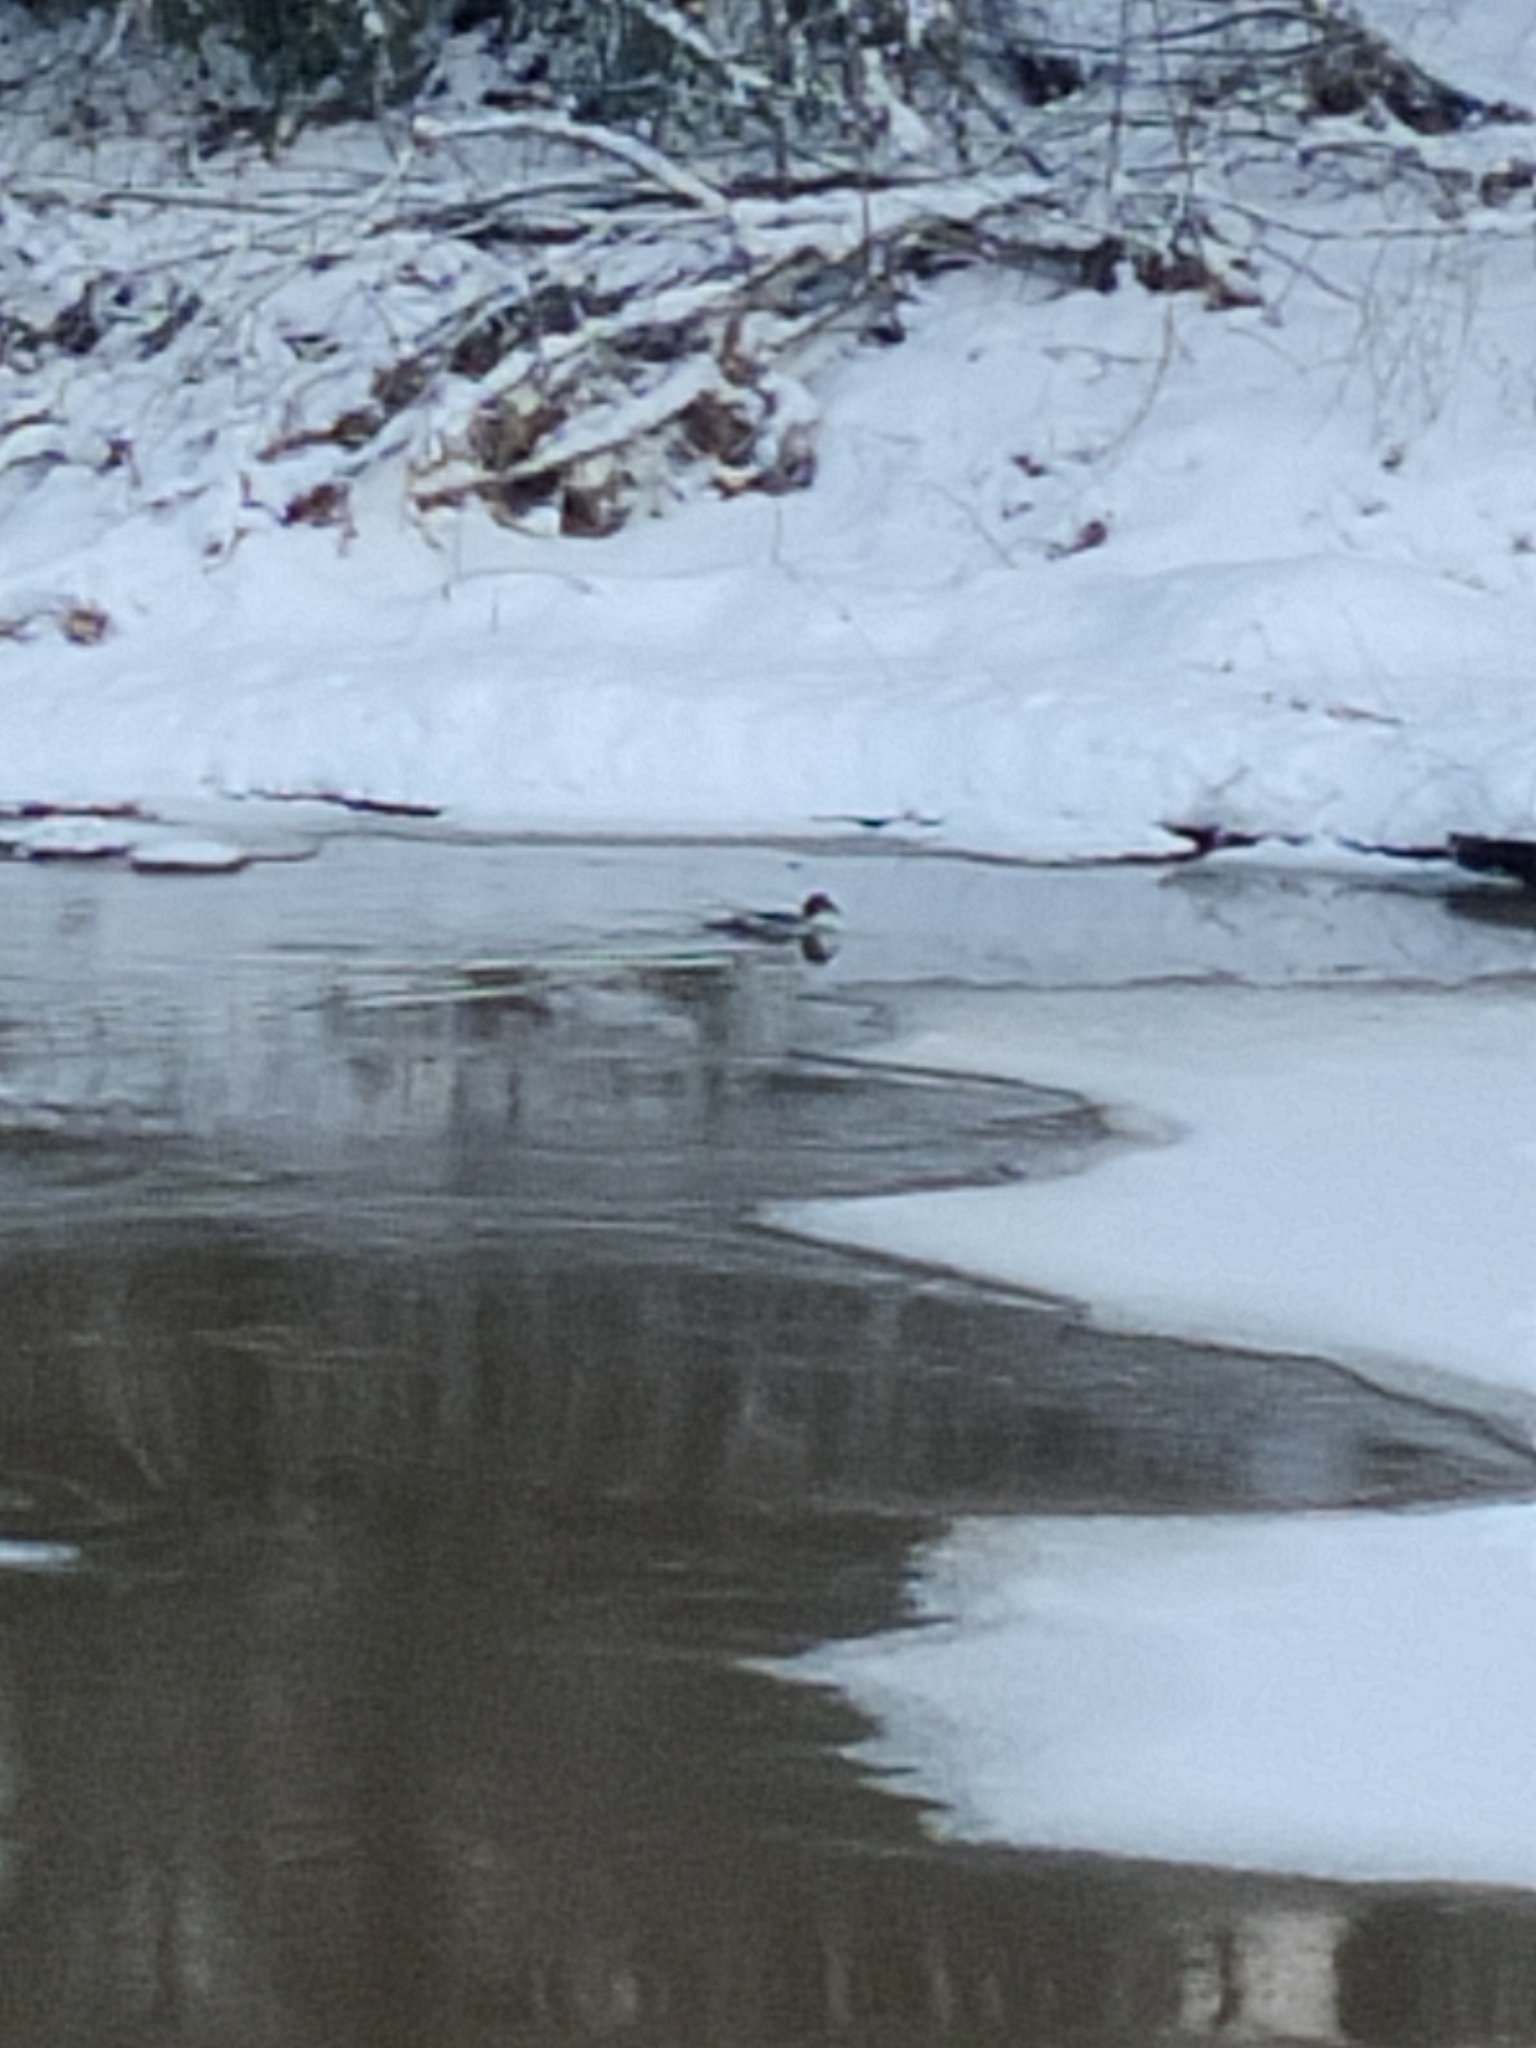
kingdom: Animalia
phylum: Chordata
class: Aves
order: Anseriformes
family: Anatidae
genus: Bucephala
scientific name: Bucephala clangula
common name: Common goldeneye
